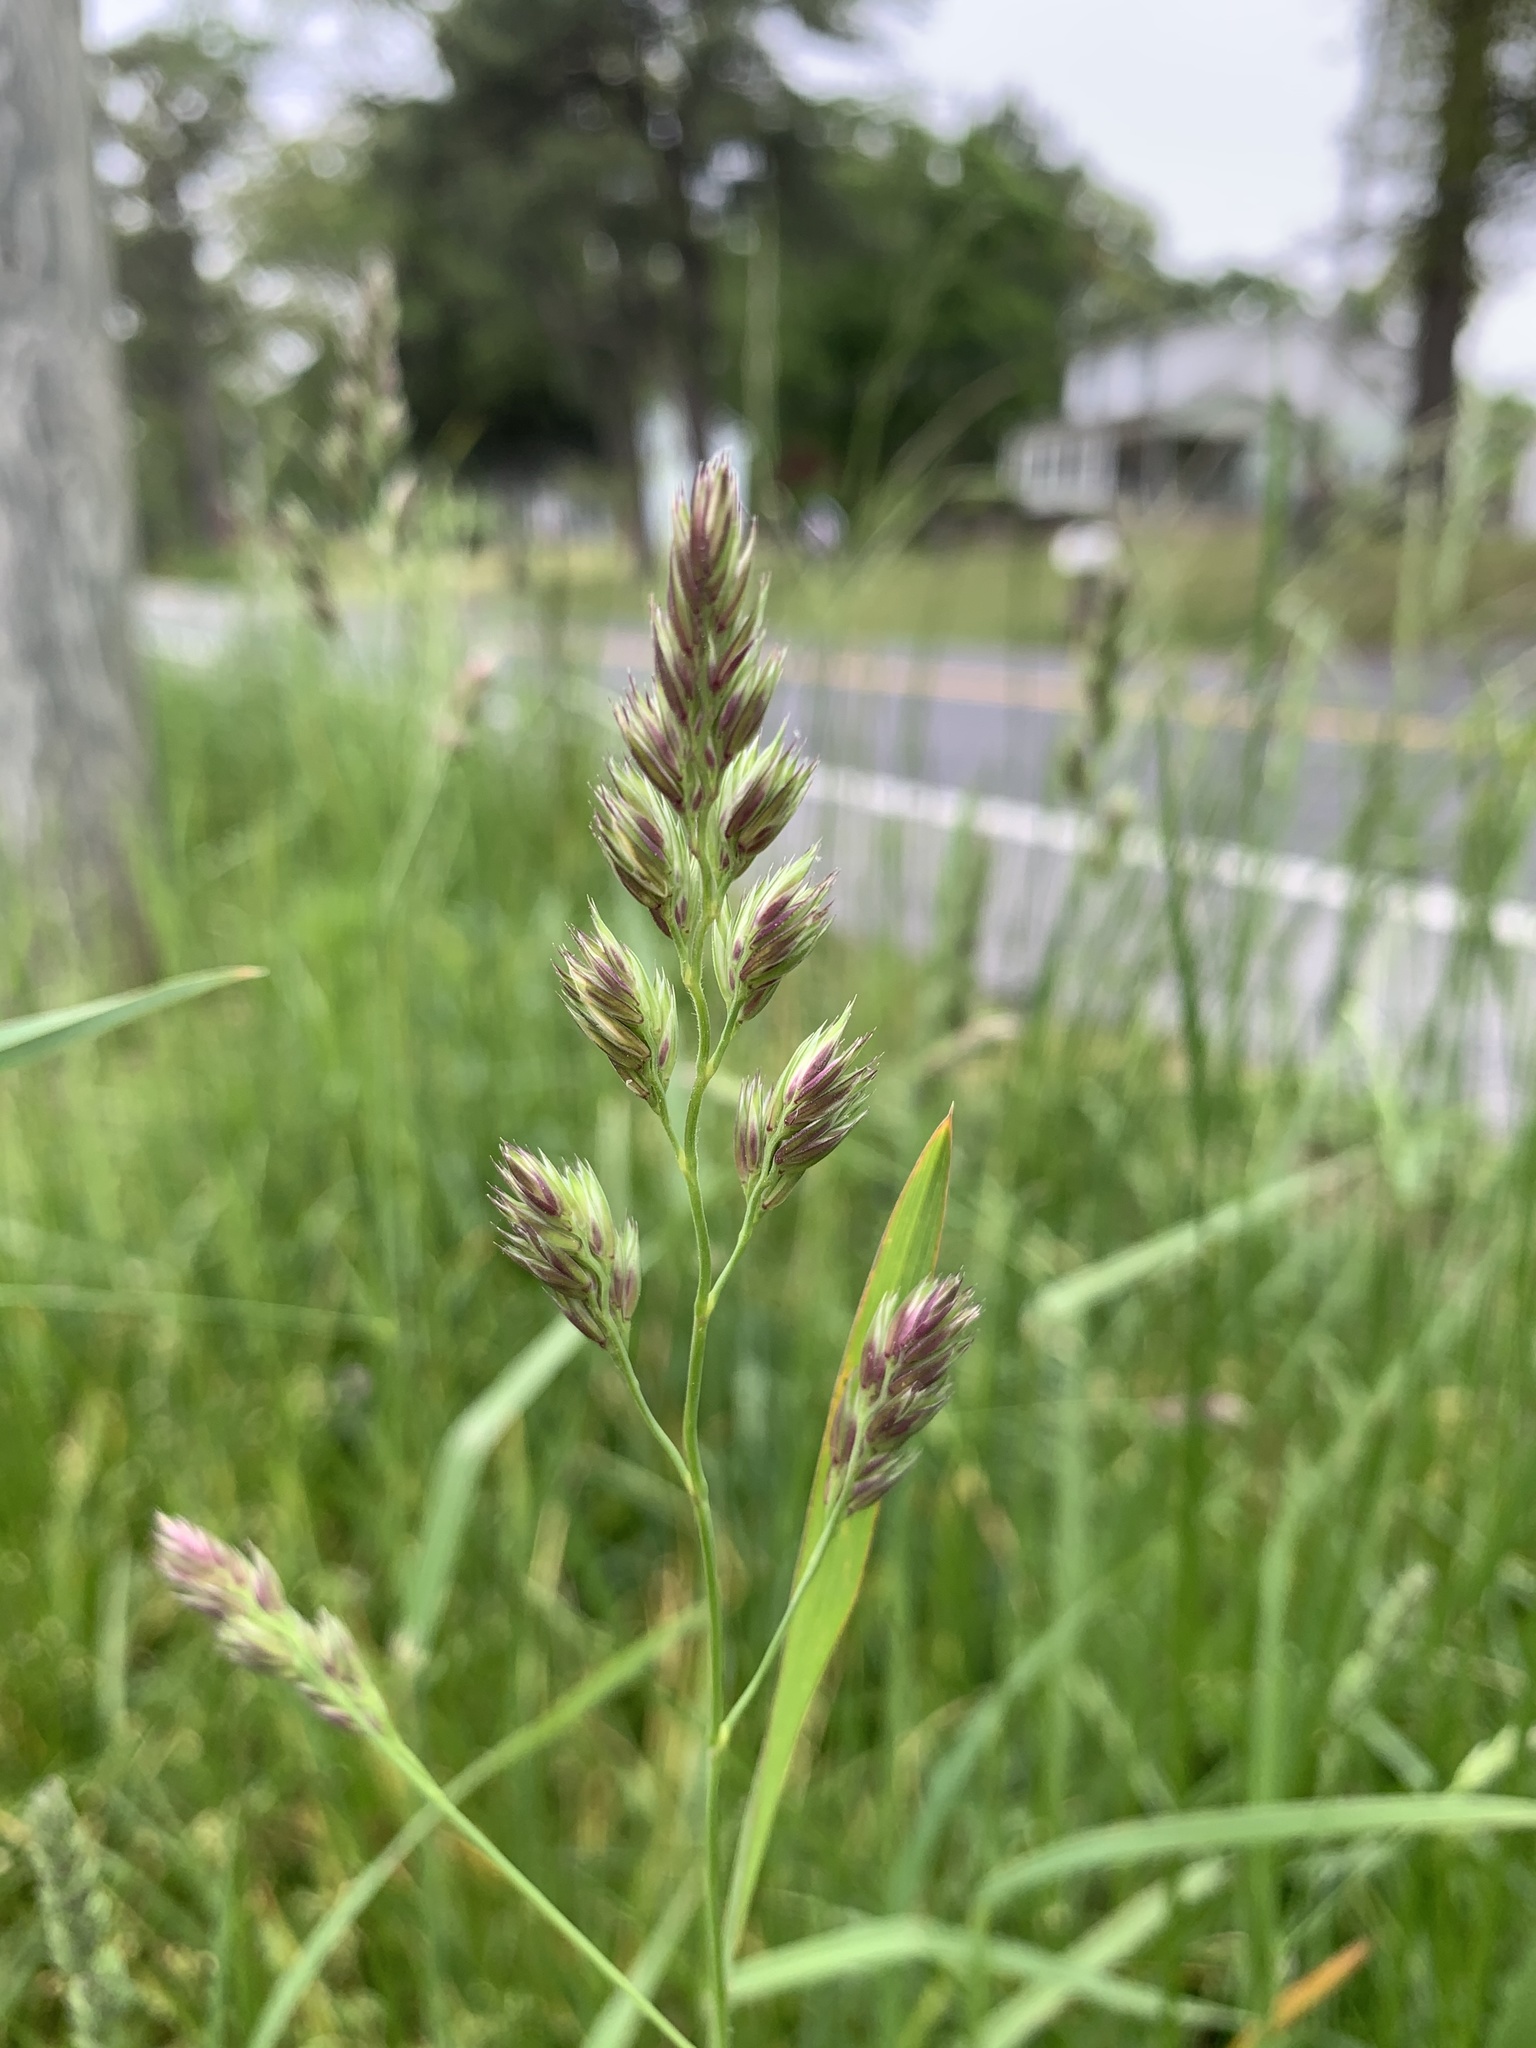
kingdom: Plantae
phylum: Tracheophyta
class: Liliopsida
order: Poales
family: Poaceae
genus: Dactylis
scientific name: Dactylis glomerata
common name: Orchardgrass
